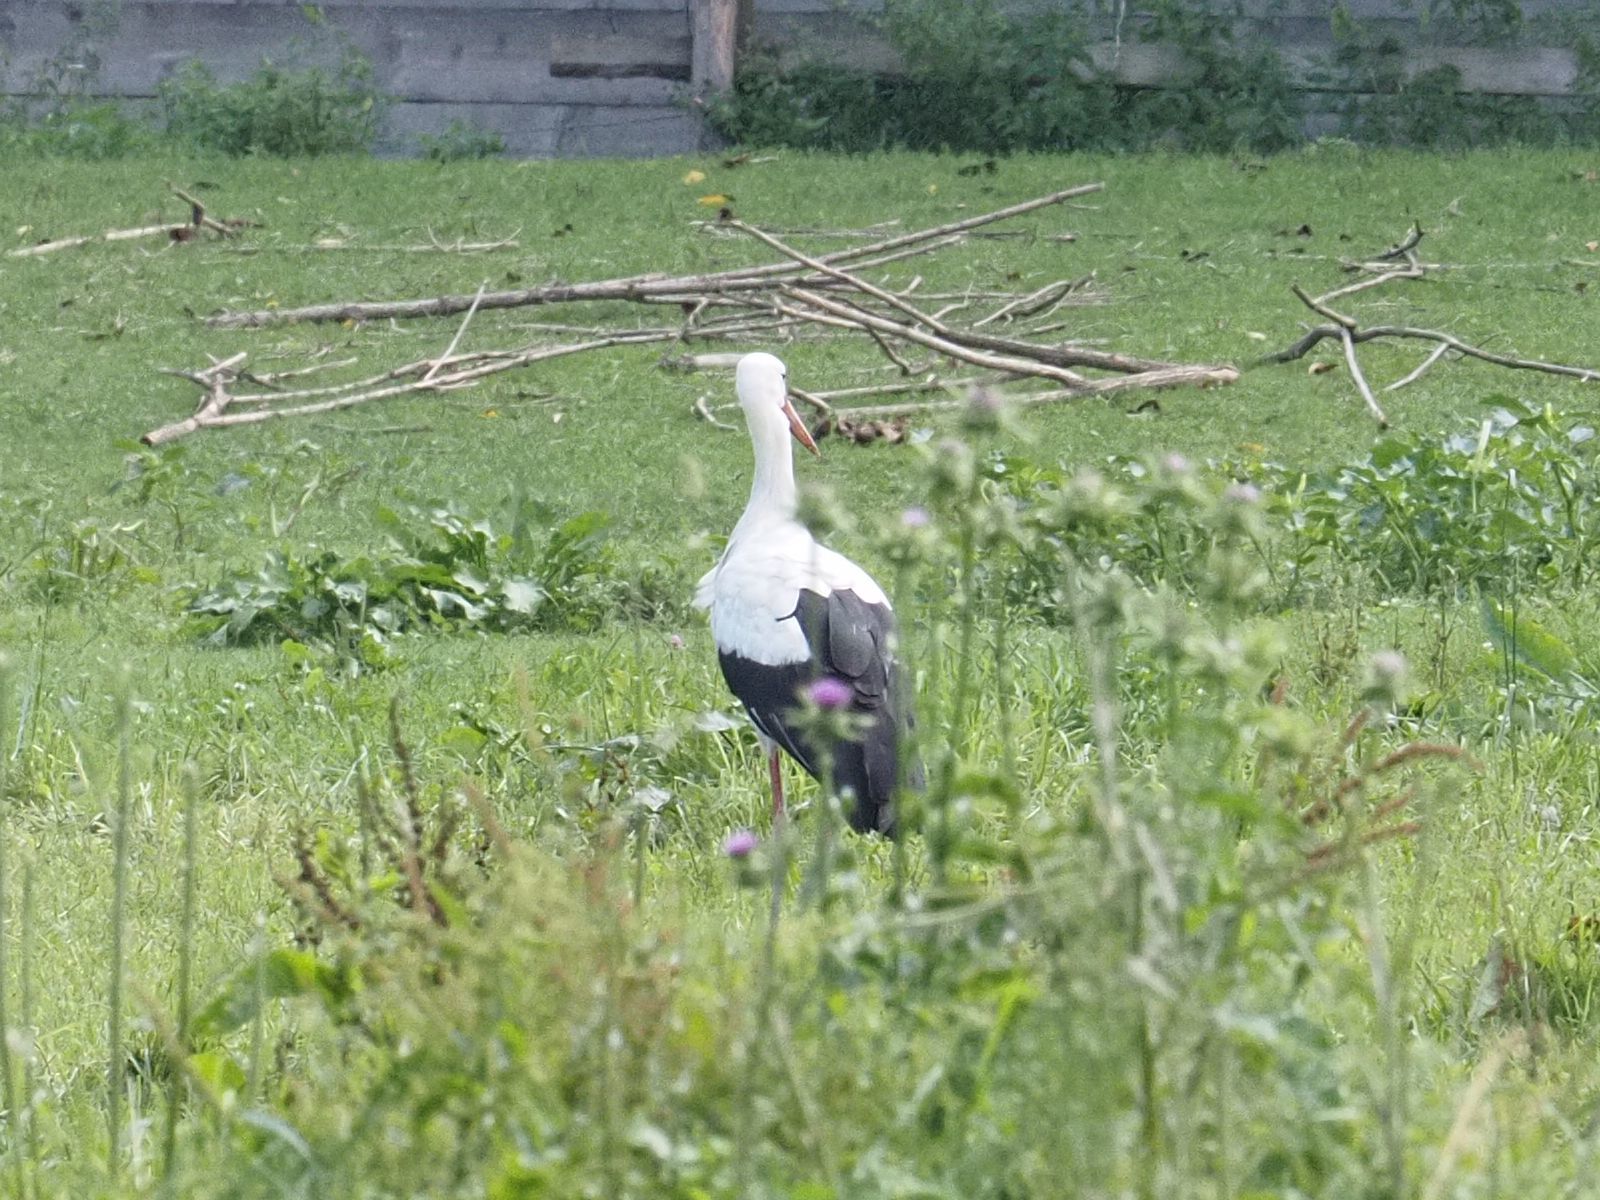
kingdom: Animalia
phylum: Chordata
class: Aves
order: Ciconiiformes
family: Ciconiidae
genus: Ciconia
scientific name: Ciconia ciconia
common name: White stork
